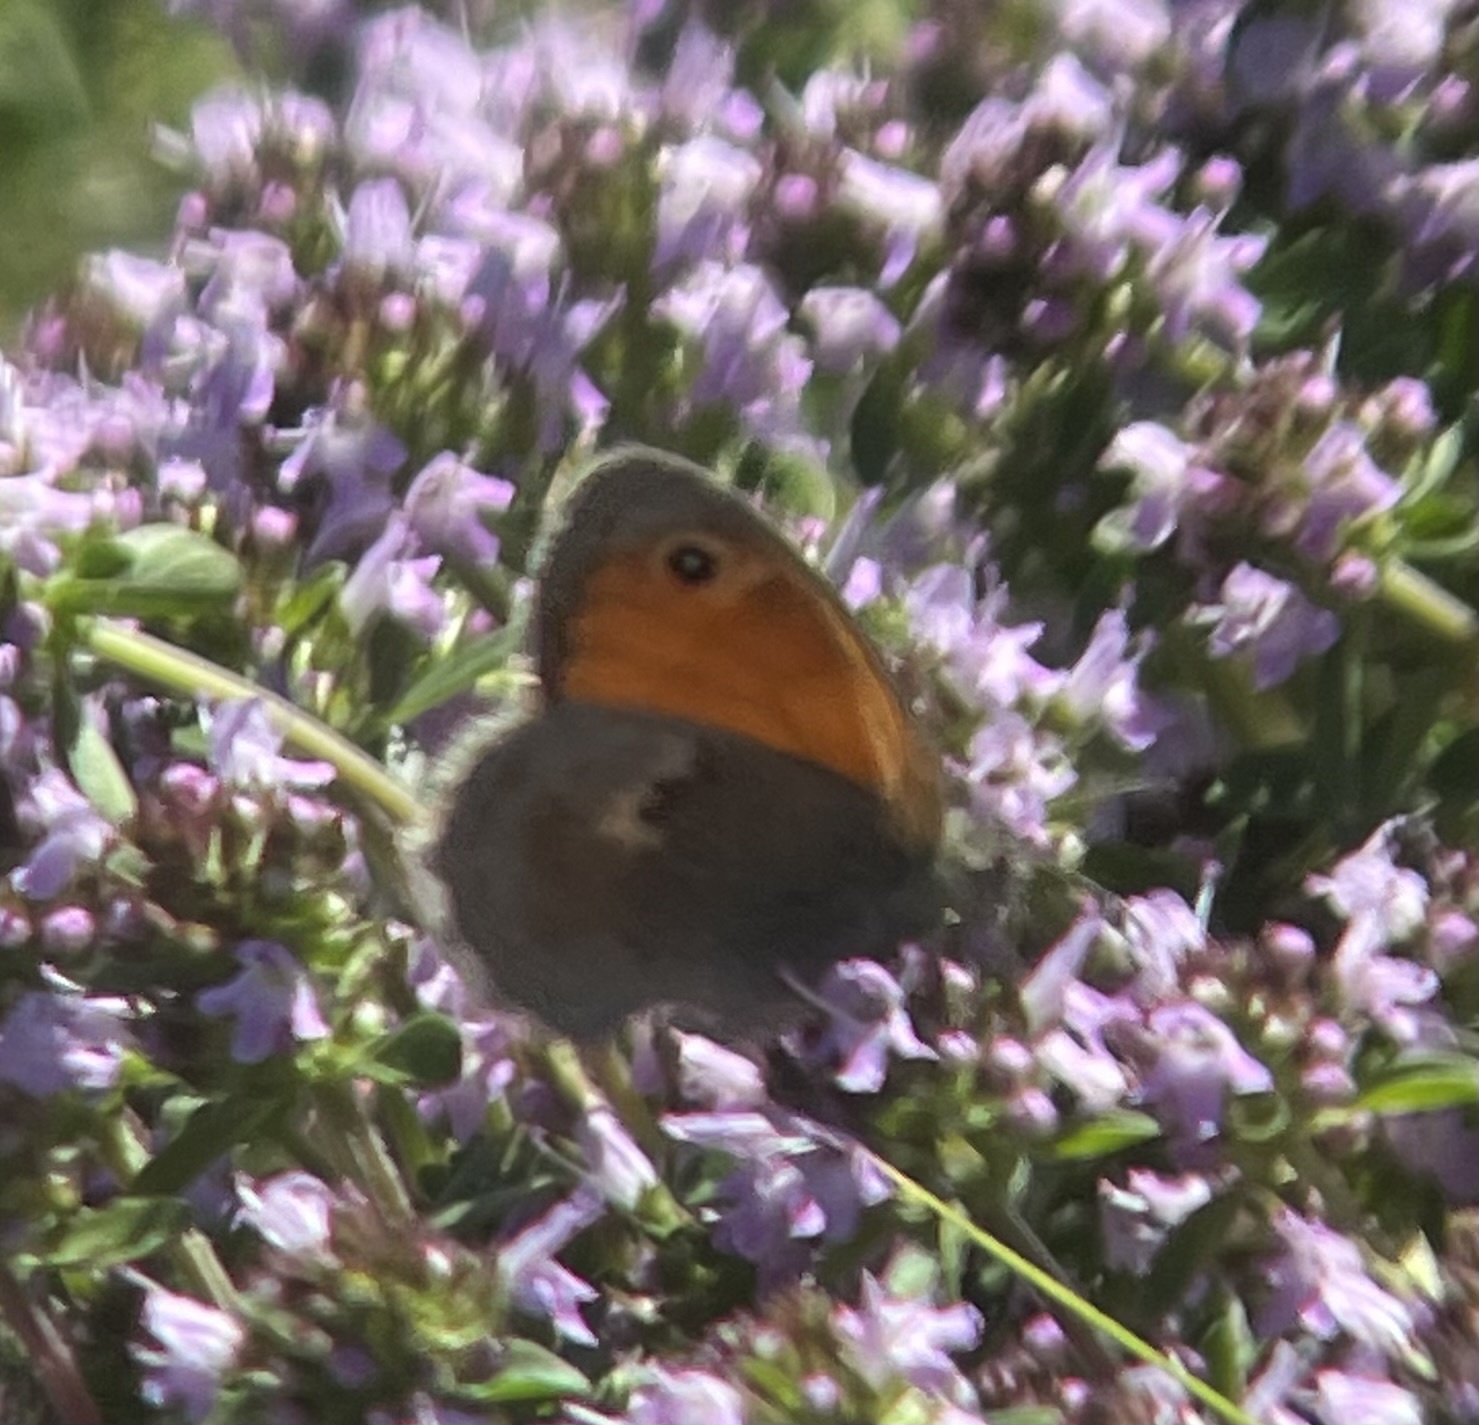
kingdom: Animalia
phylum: Arthropoda
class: Insecta
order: Lepidoptera
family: Nymphalidae
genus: Coenonympha
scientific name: Coenonympha pamphilus
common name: Small heath
